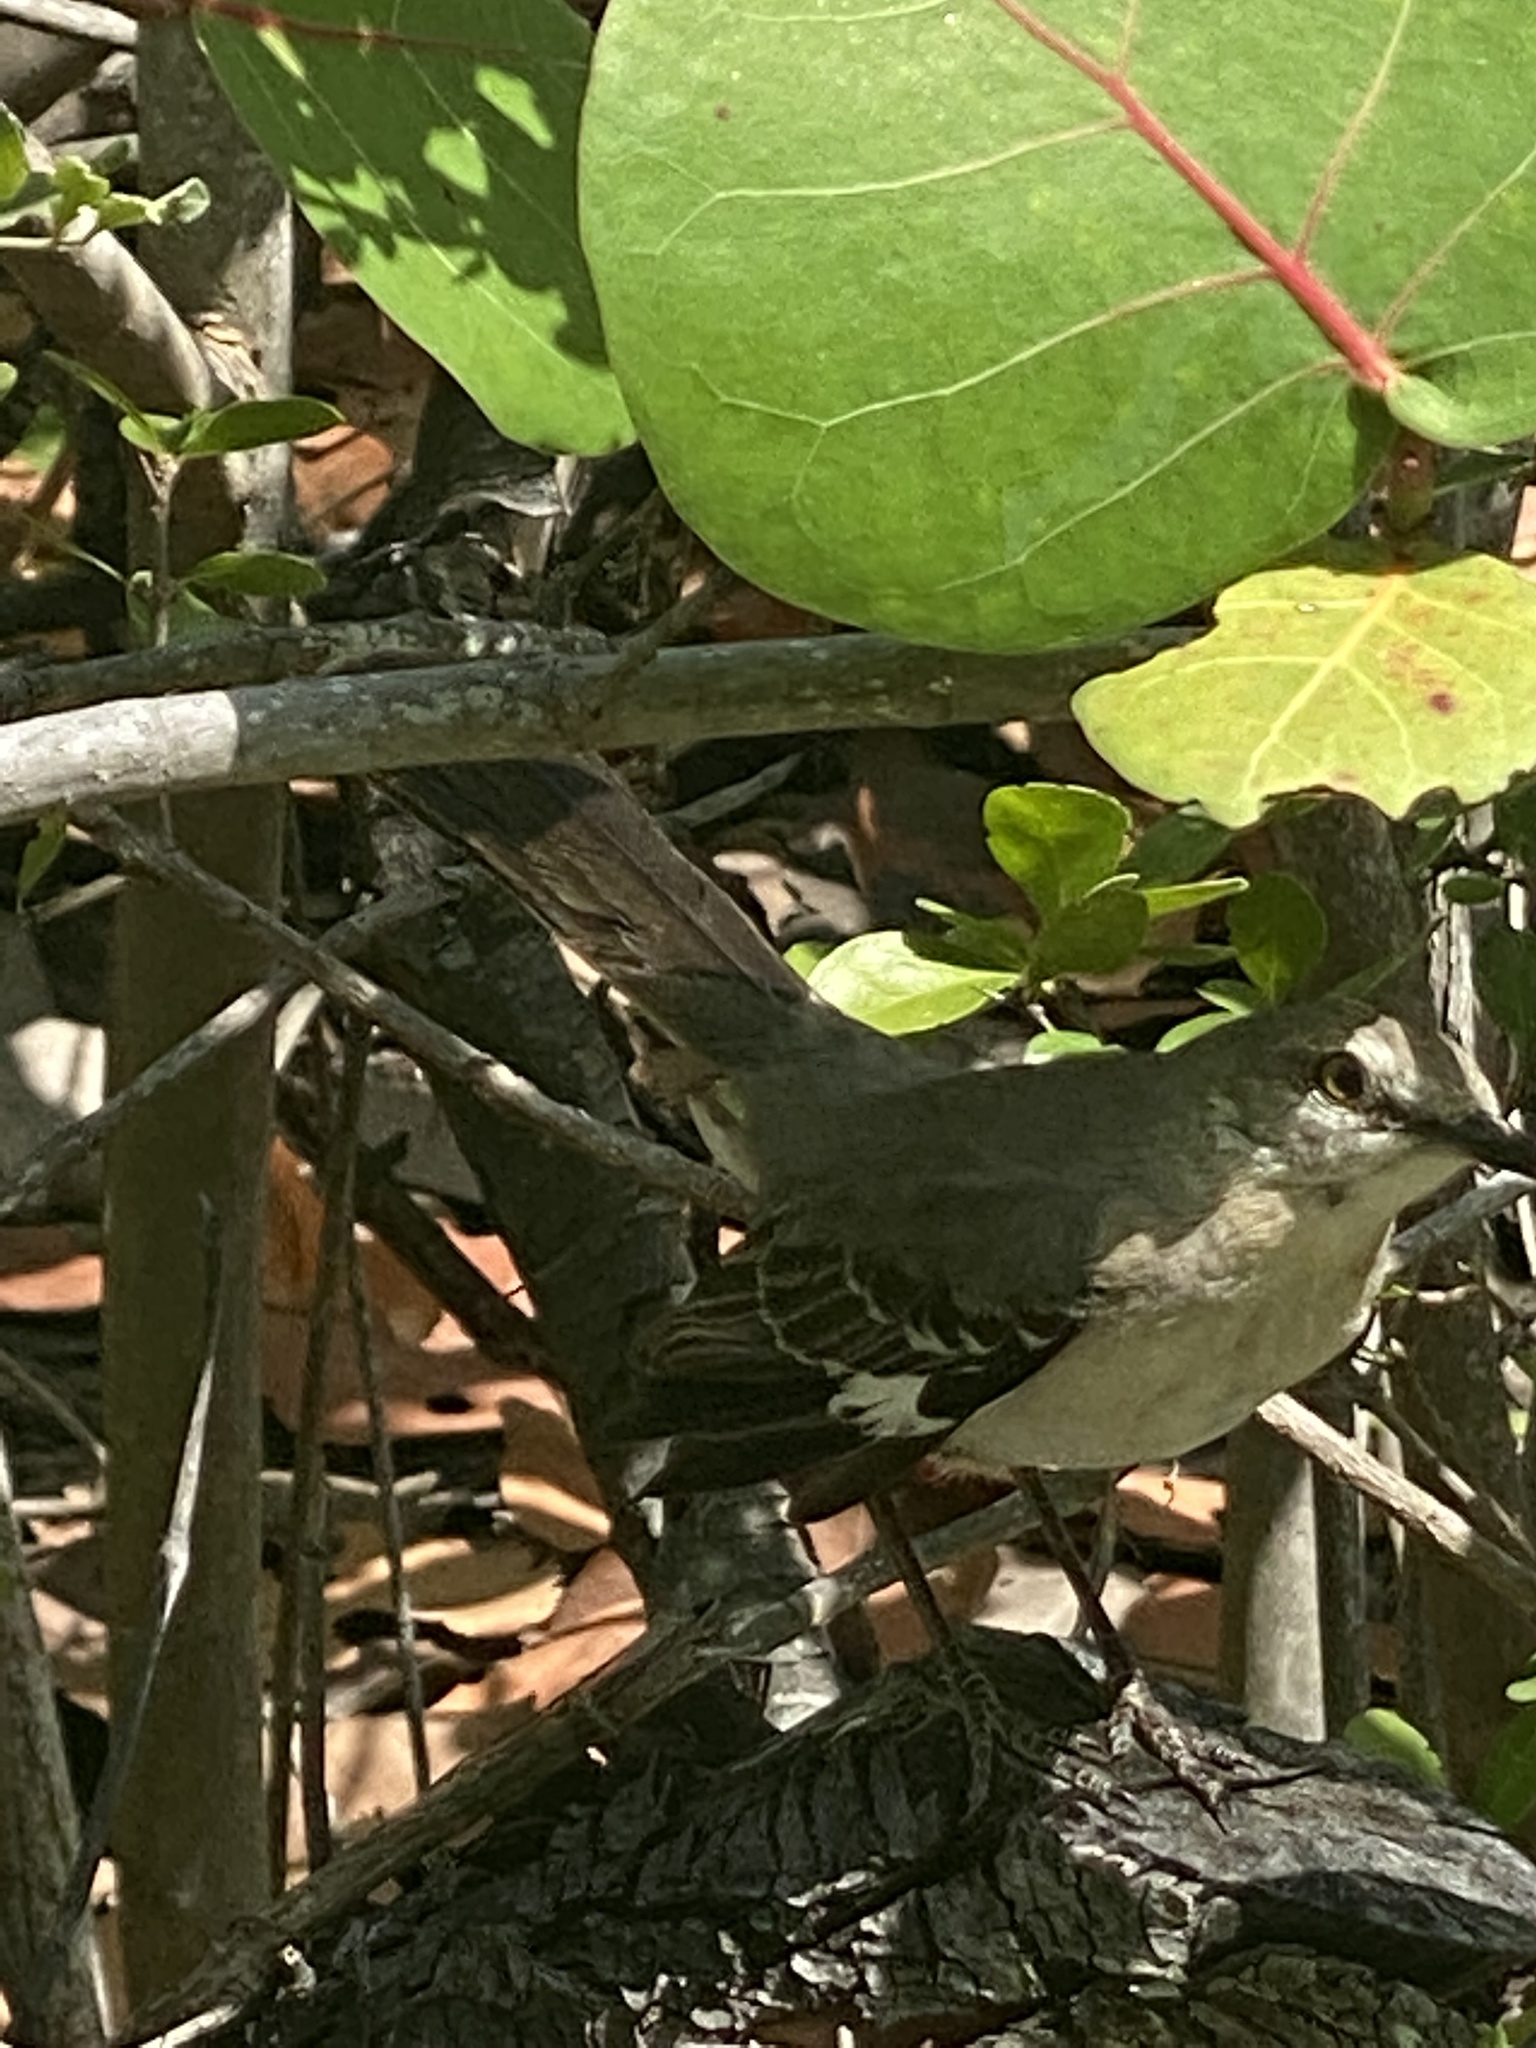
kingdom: Animalia
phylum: Chordata
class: Aves
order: Passeriformes
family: Mimidae
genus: Mimus
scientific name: Mimus polyglottos
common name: Northern mockingbird
